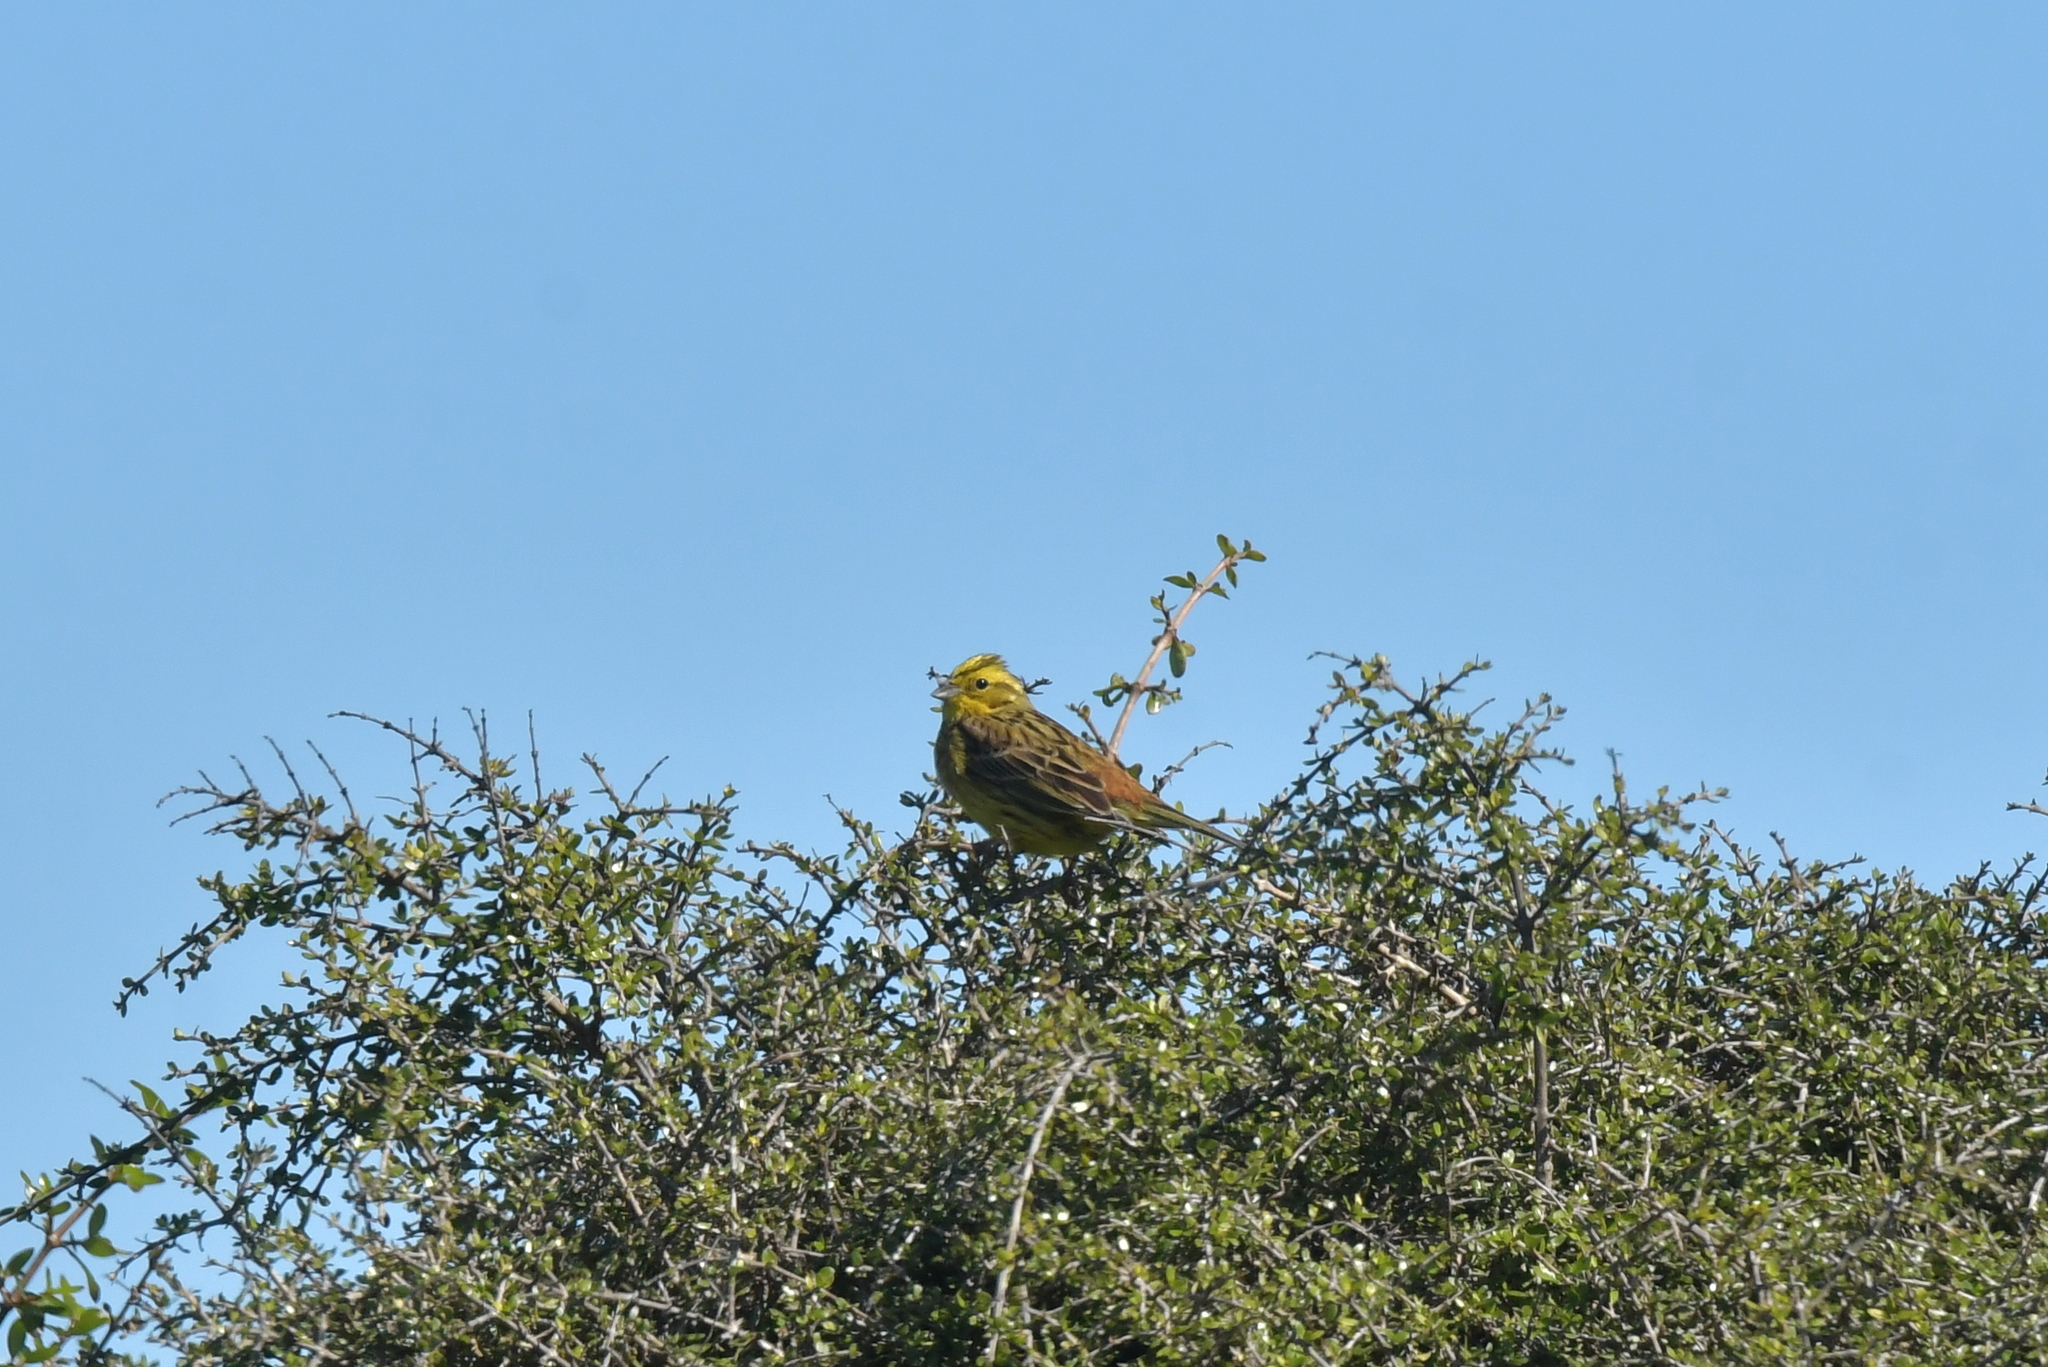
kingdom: Animalia
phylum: Chordata
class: Aves
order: Passeriformes
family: Emberizidae
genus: Emberiza
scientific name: Emberiza citrinella
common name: Yellowhammer
